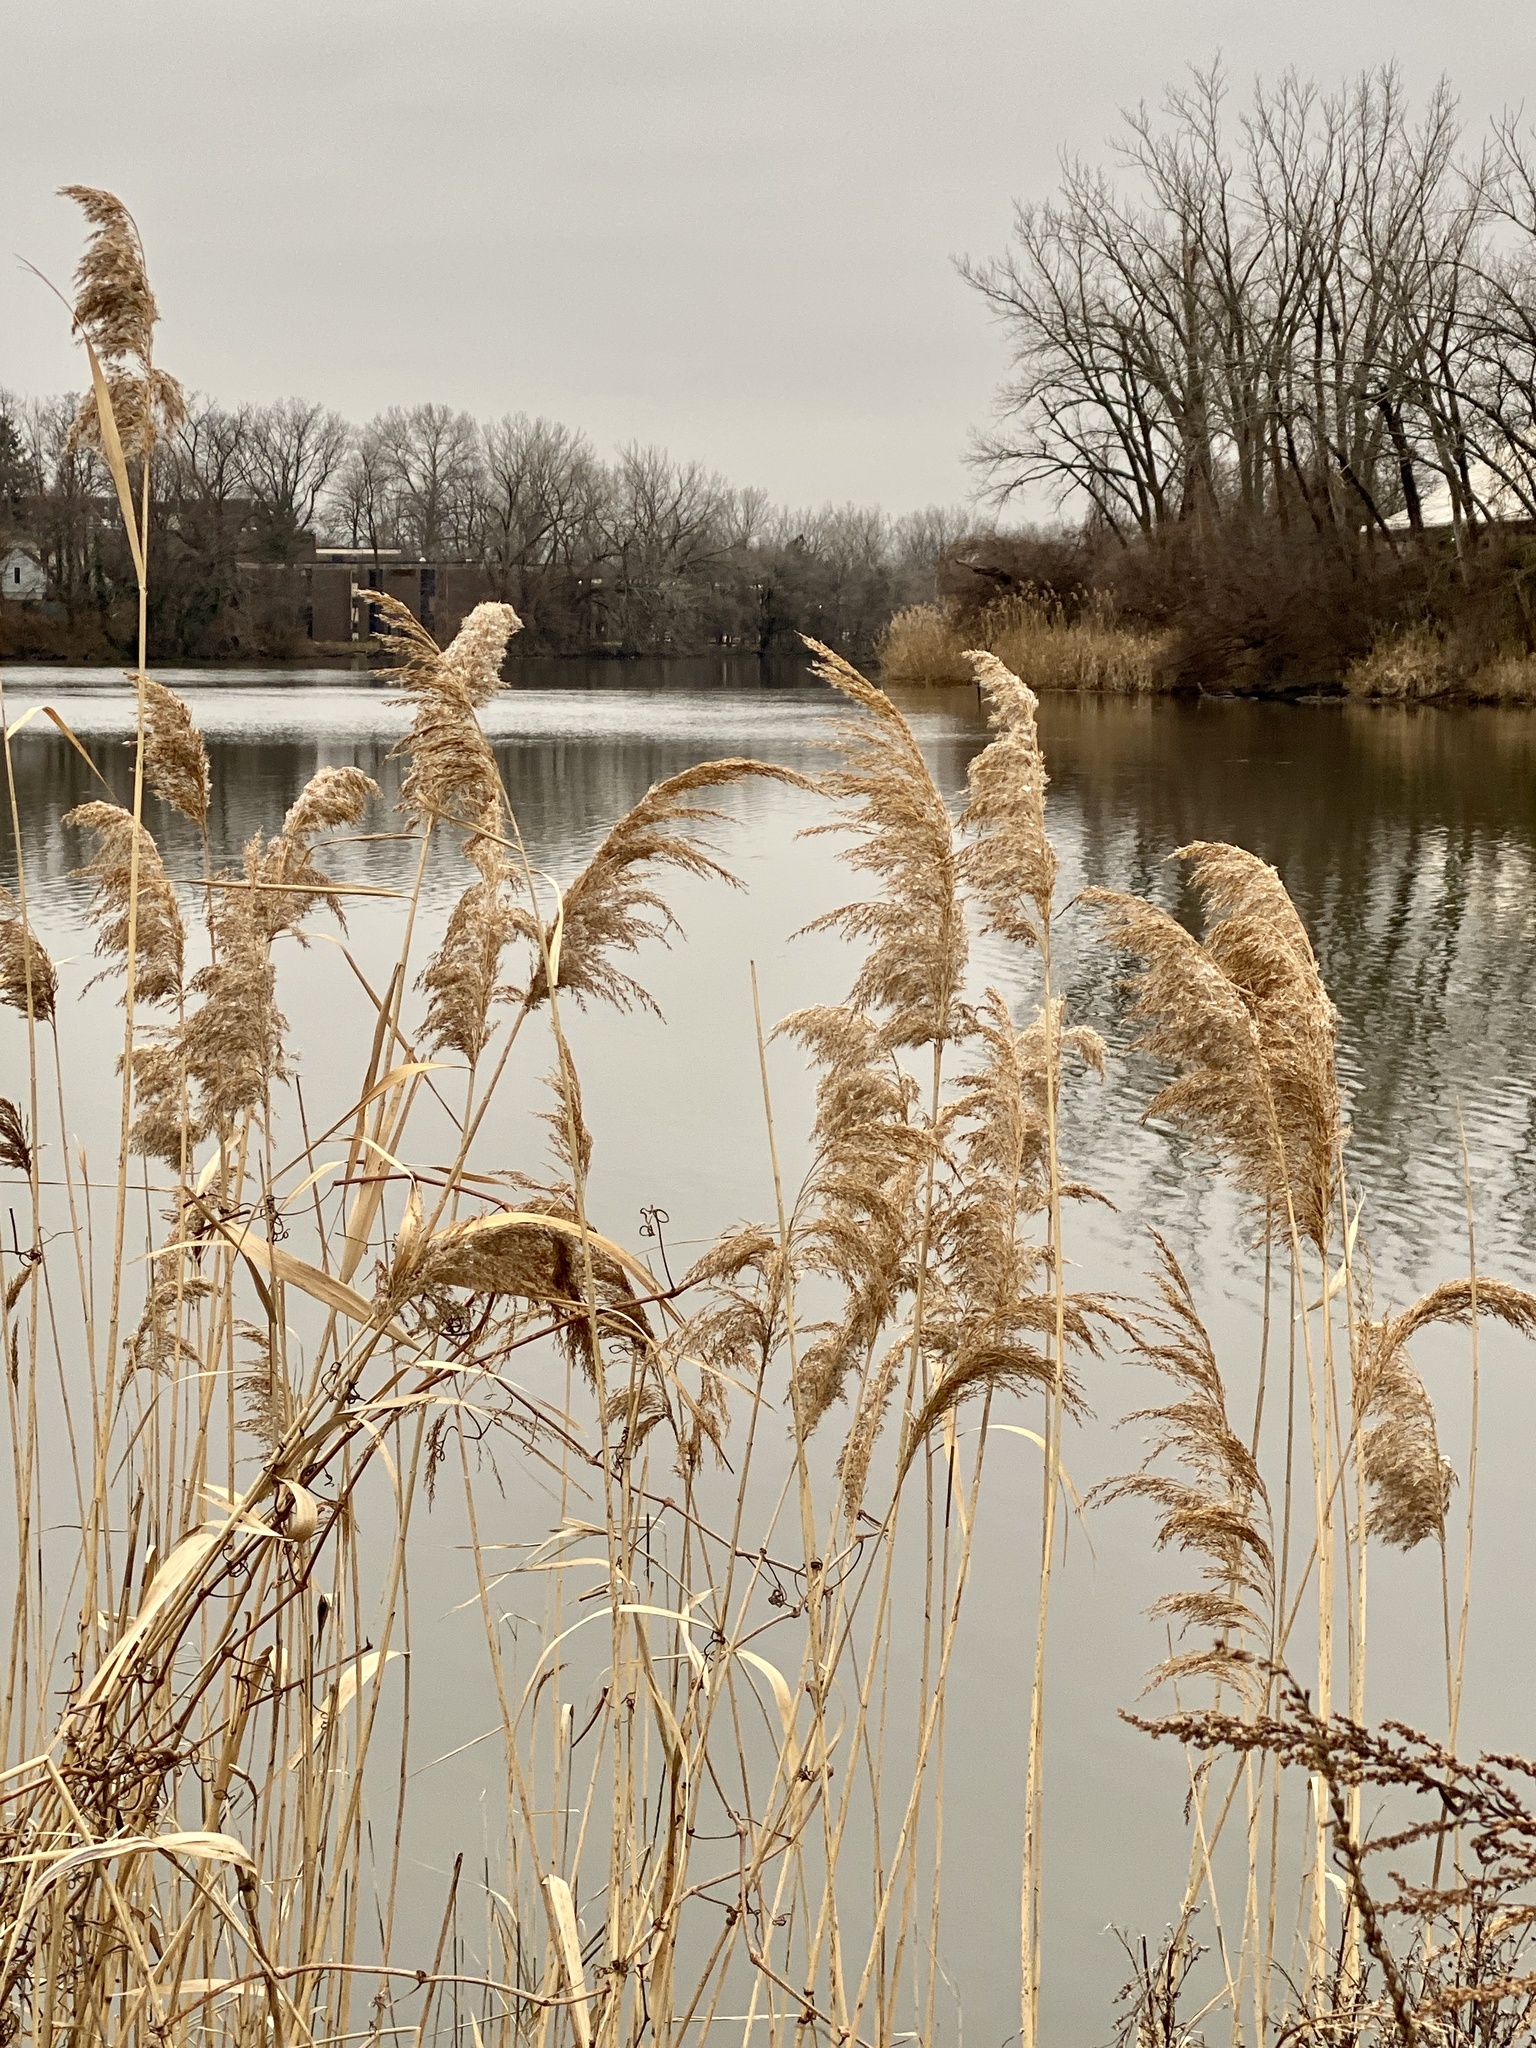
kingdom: Plantae
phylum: Tracheophyta
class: Liliopsida
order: Poales
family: Poaceae
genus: Phragmites
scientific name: Phragmites australis
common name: Common reed
